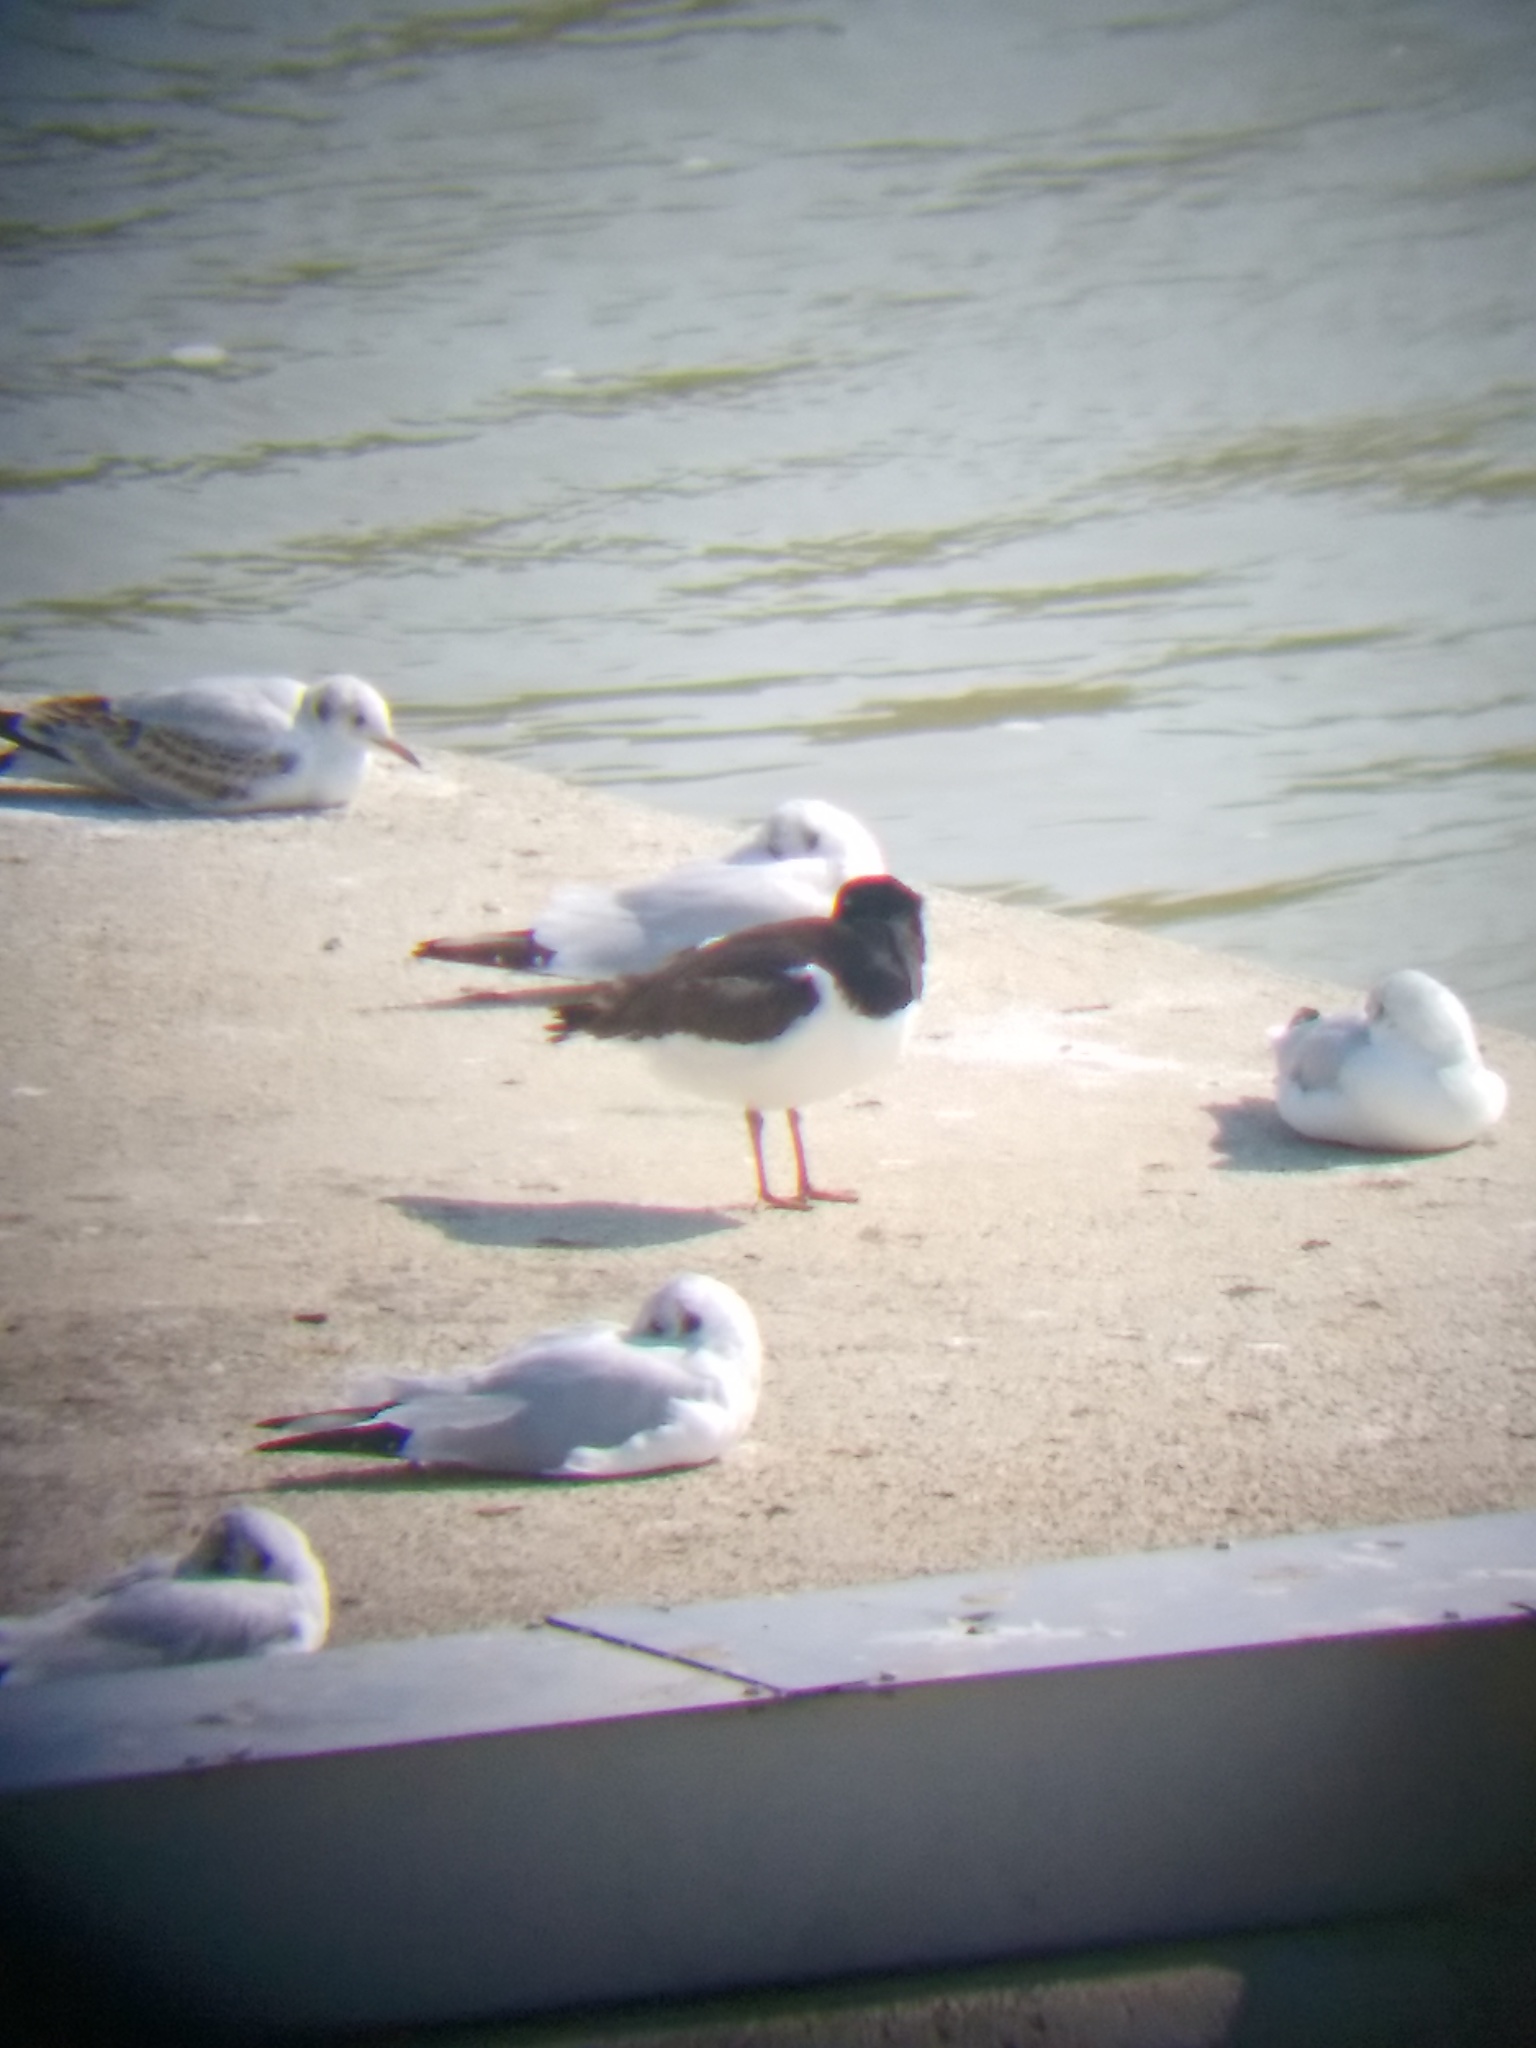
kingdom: Animalia
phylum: Chordata
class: Aves
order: Charadriiformes
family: Haematopodidae
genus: Haematopus
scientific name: Haematopus ostralegus
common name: Eurasian oystercatcher
